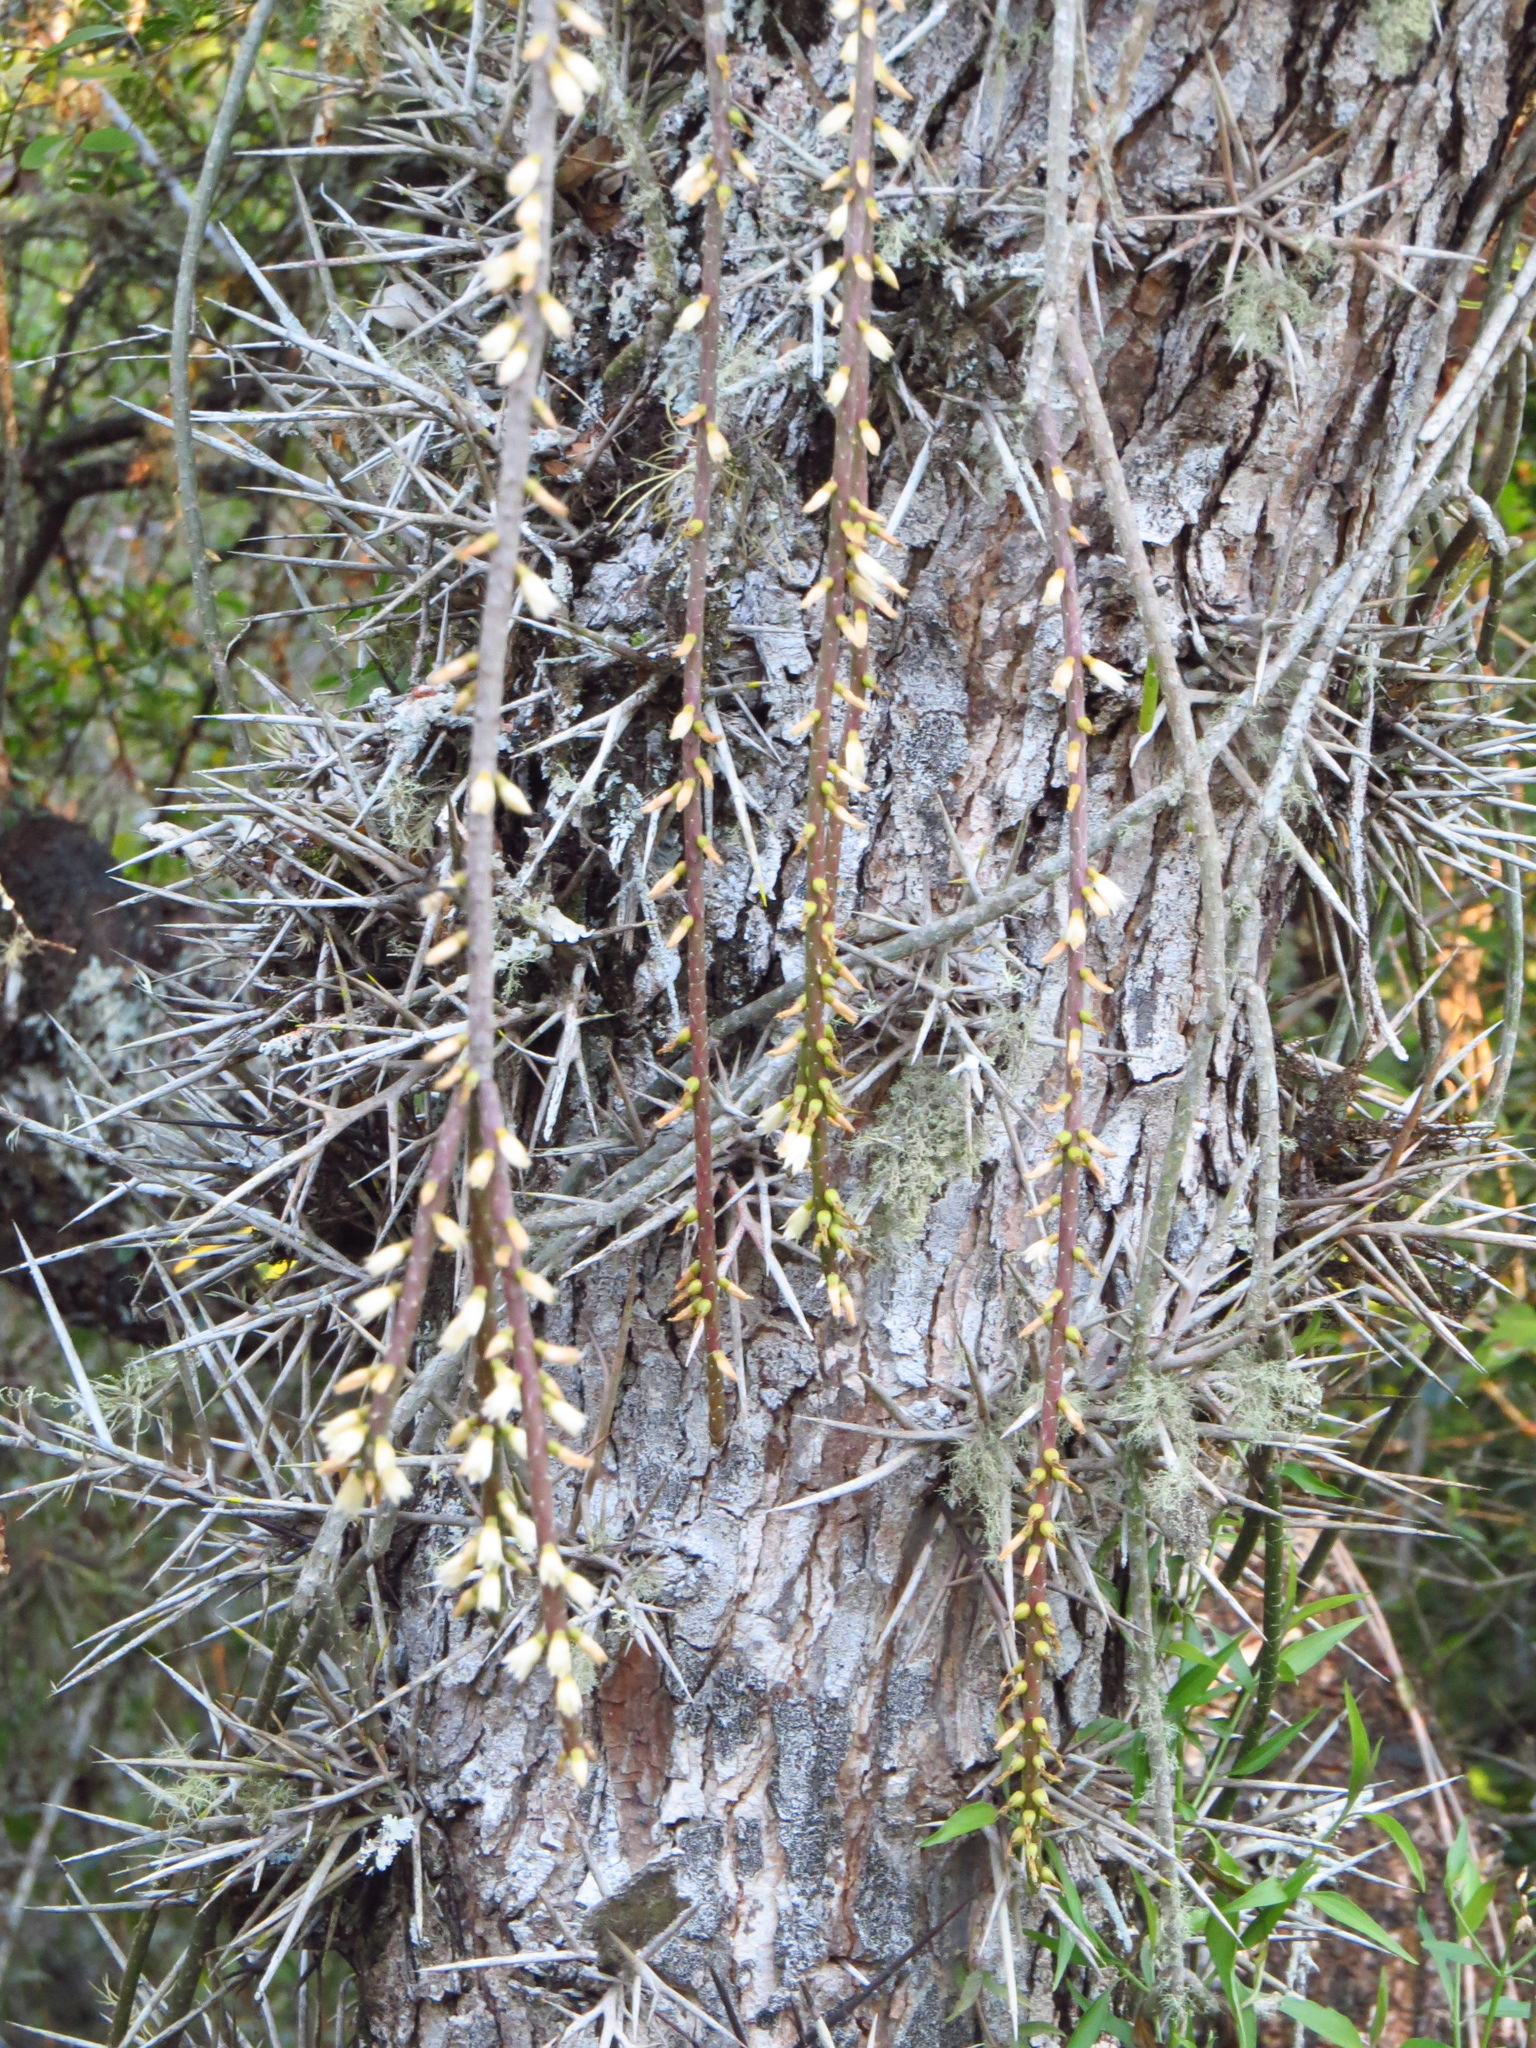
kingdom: Plantae
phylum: Tracheophyta
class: Magnoliopsida
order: Caryophyllales
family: Cactaceae
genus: Lepismium
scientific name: Lepismium lumbricoides
